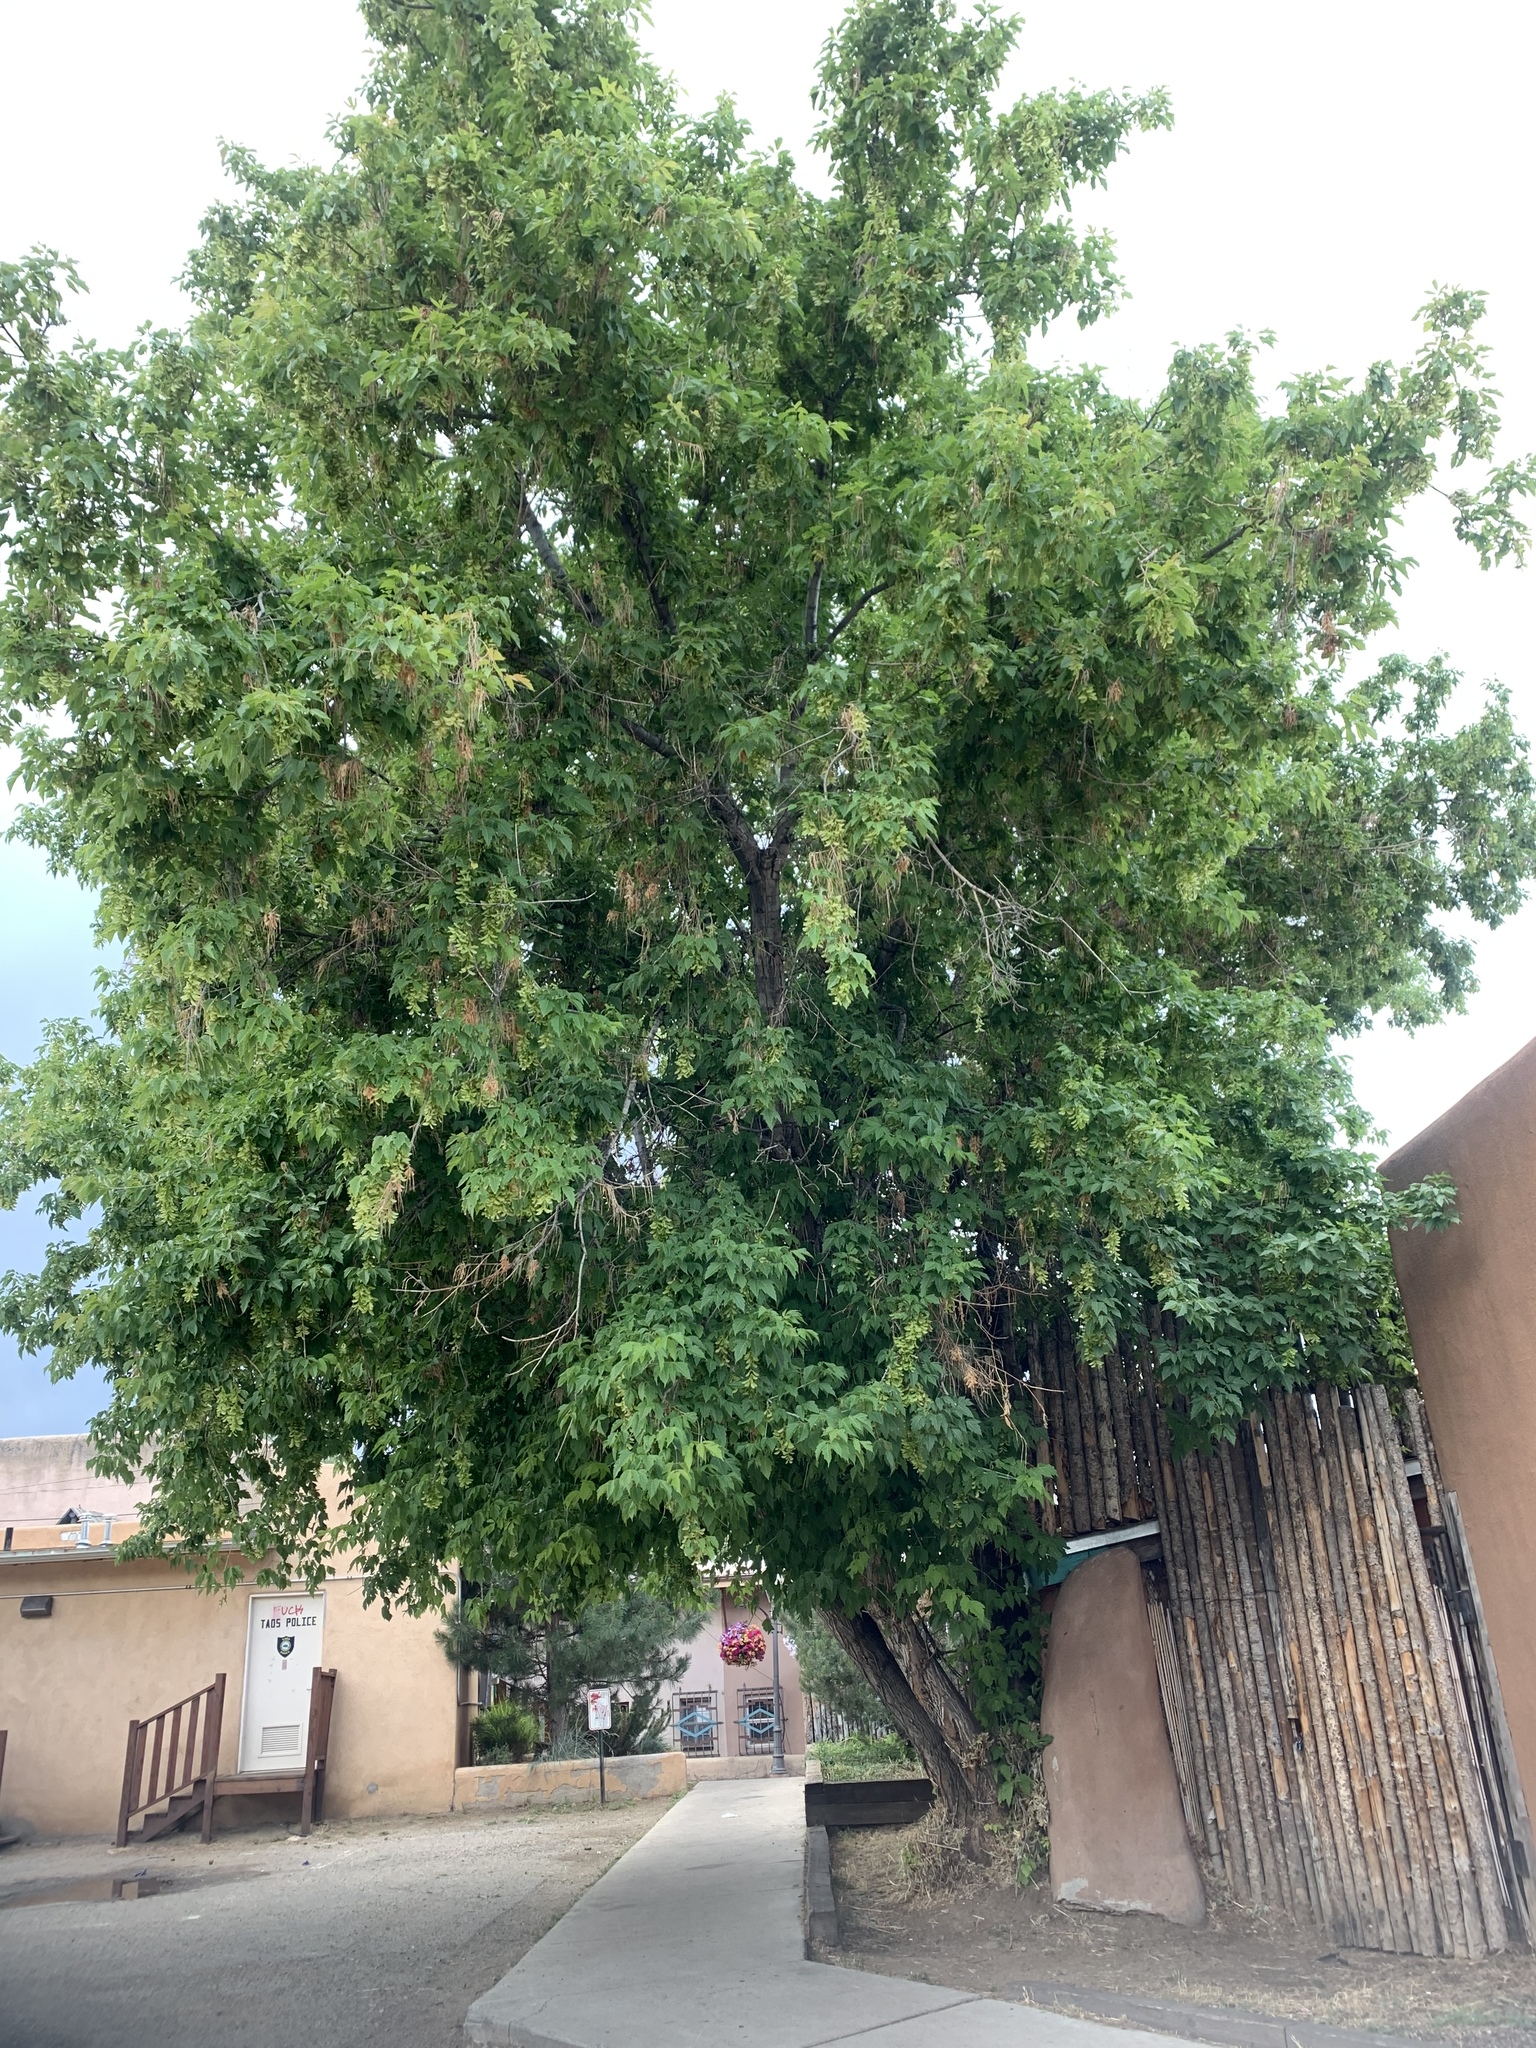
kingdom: Plantae
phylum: Tracheophyta
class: Magnoliopsida
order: Sapindales
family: Sapindaceae
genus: Acer
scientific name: Acer negundo
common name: Ashleaf maple
